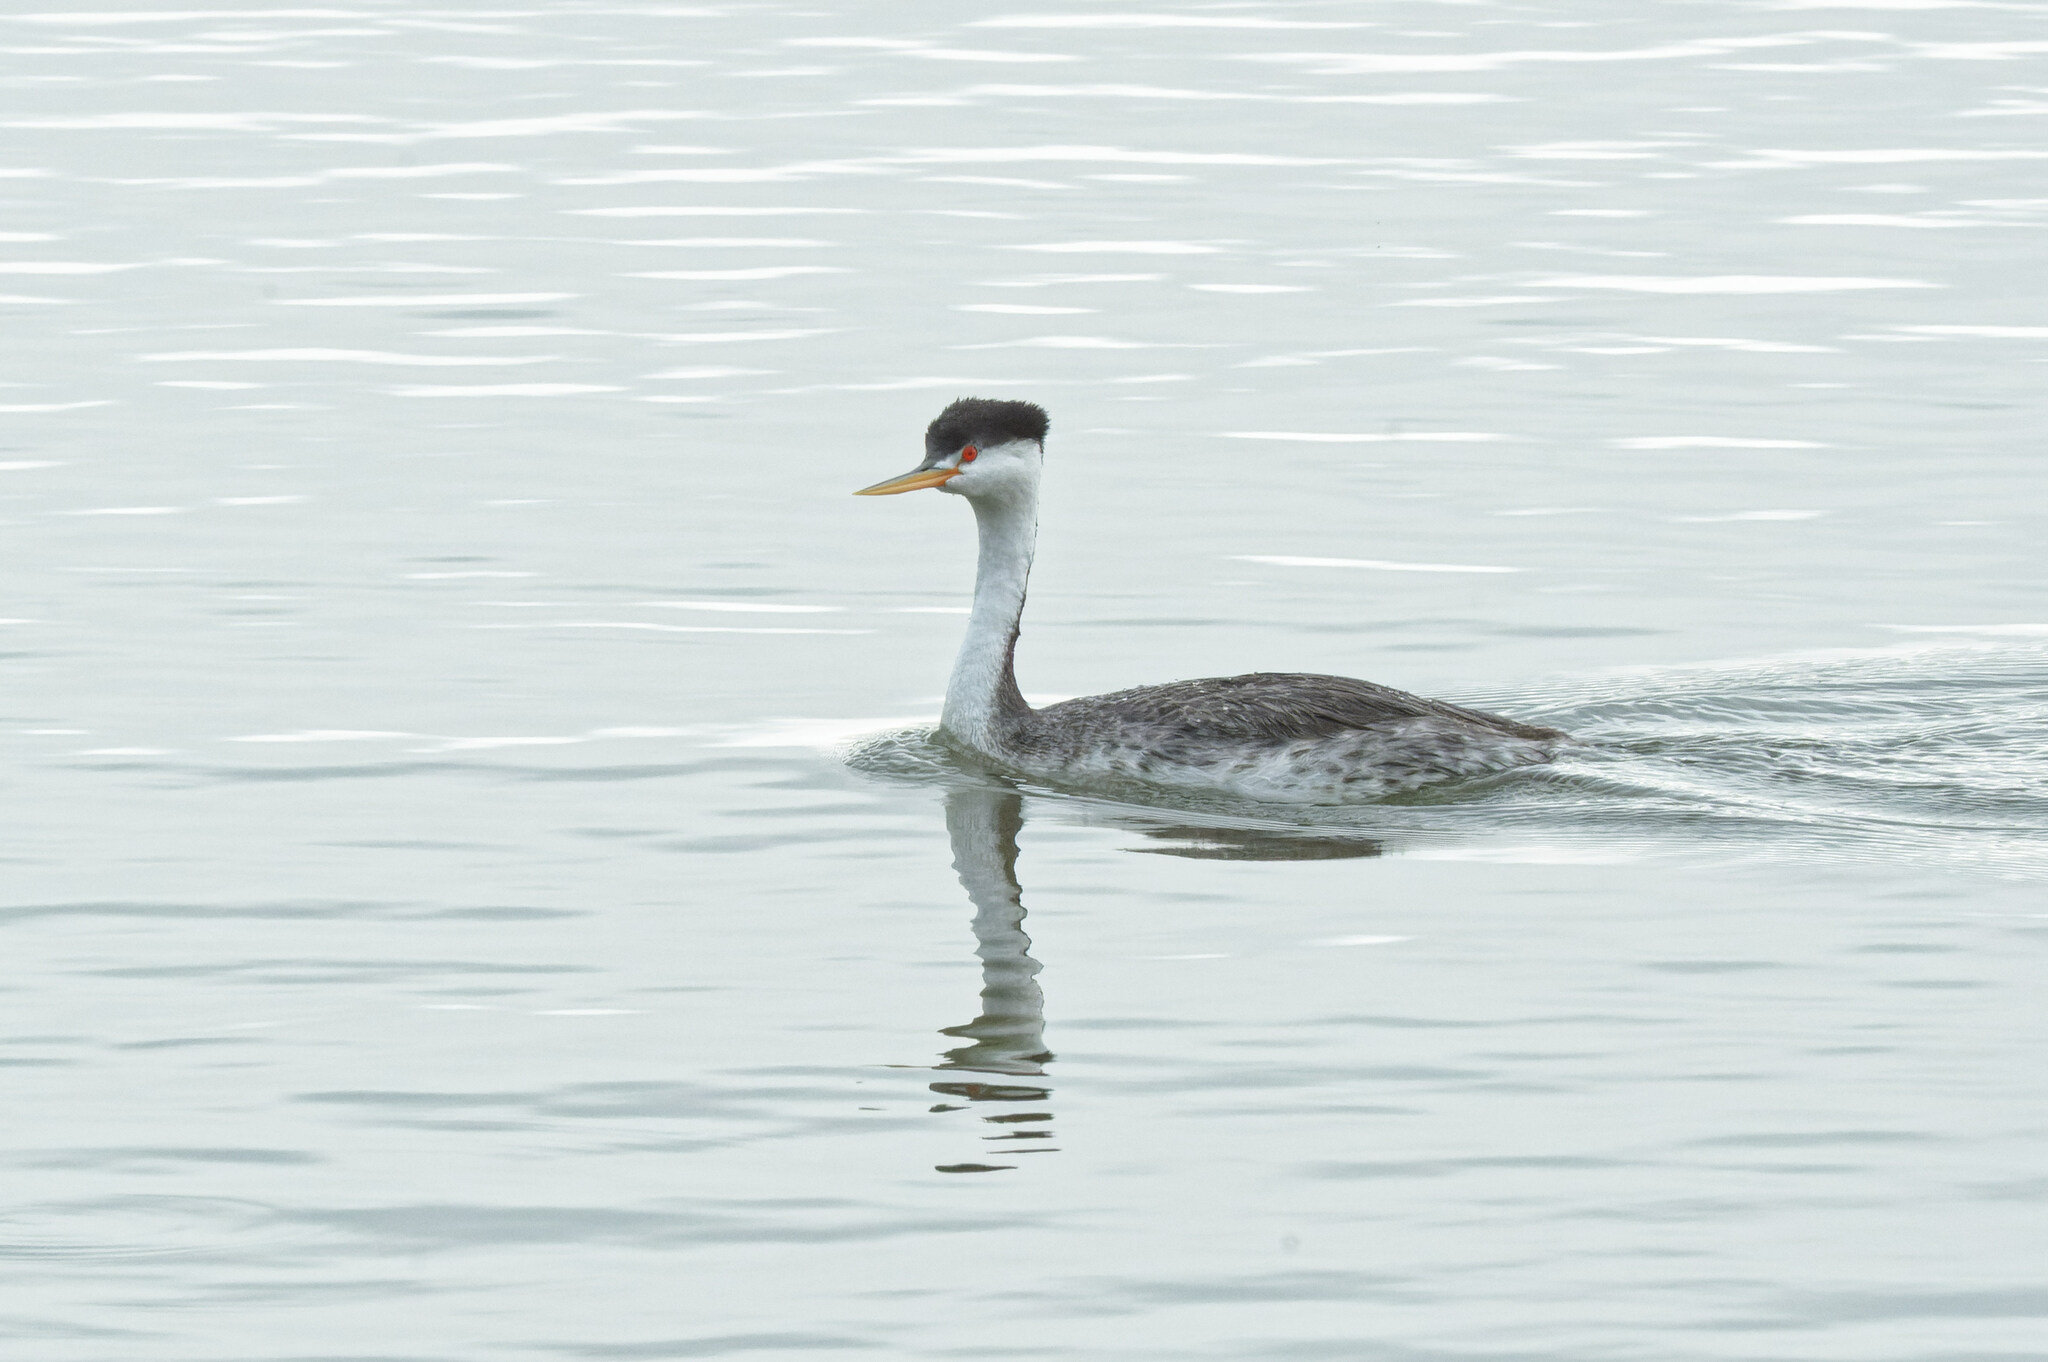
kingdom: Animalia
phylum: Chordata
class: Aves
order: Podicipediformes
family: Podicipedidae
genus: Aechmophorus
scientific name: Aechmophorus clarkii
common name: Clark's grebe
